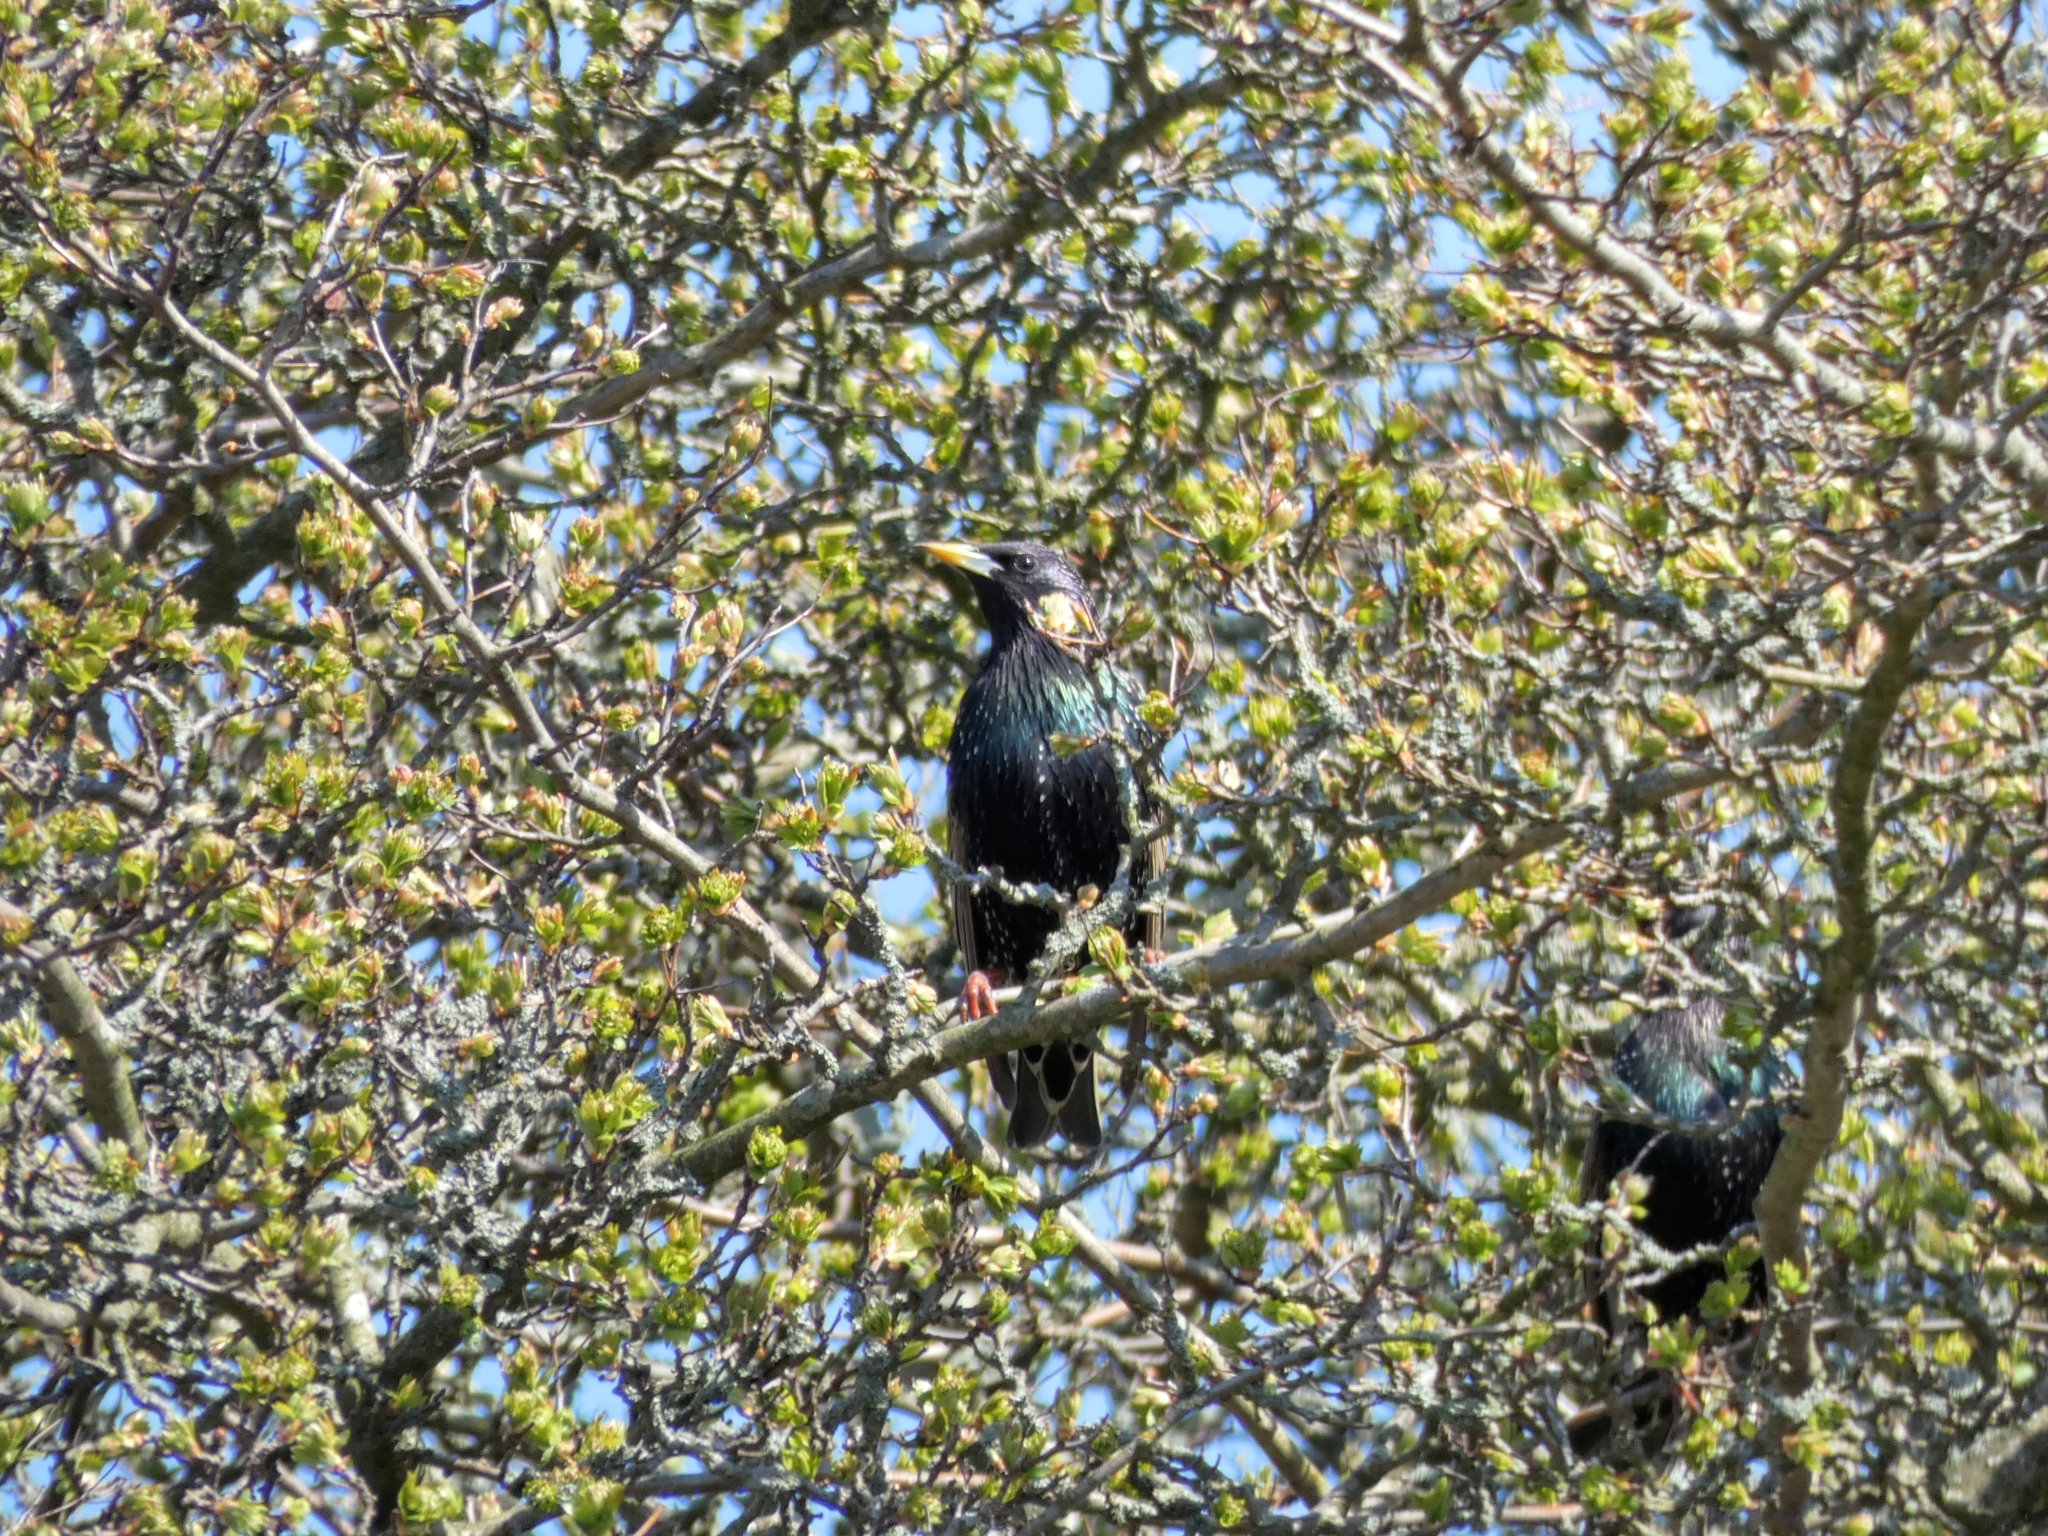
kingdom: Animalia
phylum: Chordata
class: Aves
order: Passeriformes
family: Sturnidae
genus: Sturnus
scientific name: Sturnus vulgaris
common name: Common starling
